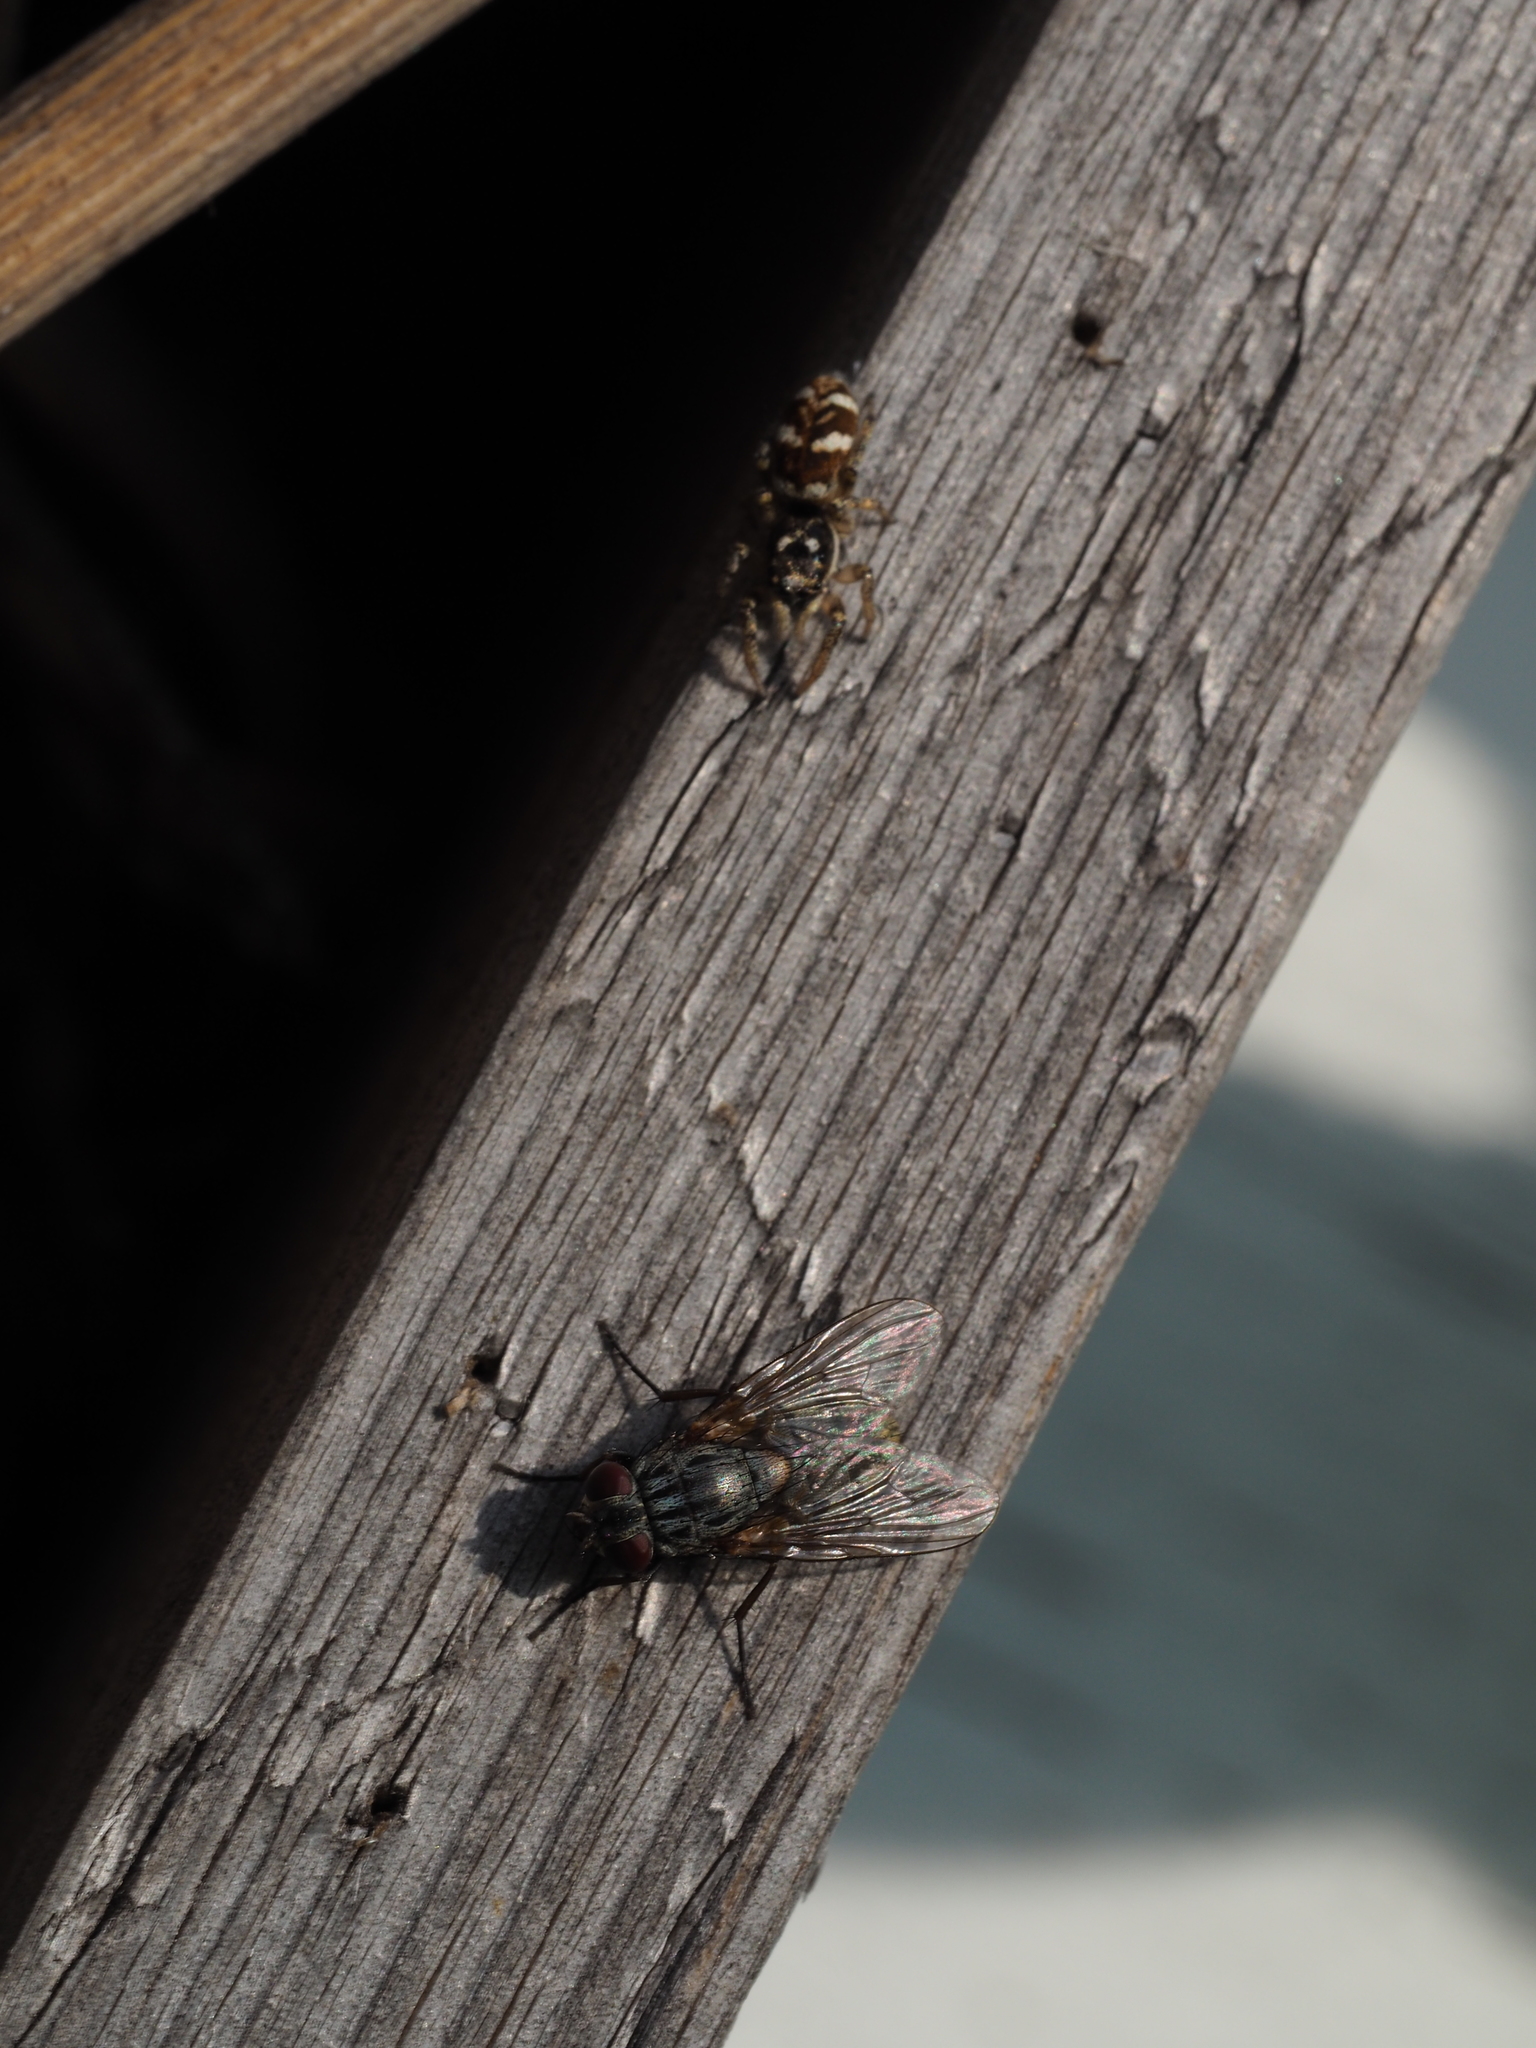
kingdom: Animalia
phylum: Arthropoda
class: Arachnida
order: Araneae
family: Salticidae
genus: Salticus
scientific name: Salticus scenicus
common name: Zebra jumper
